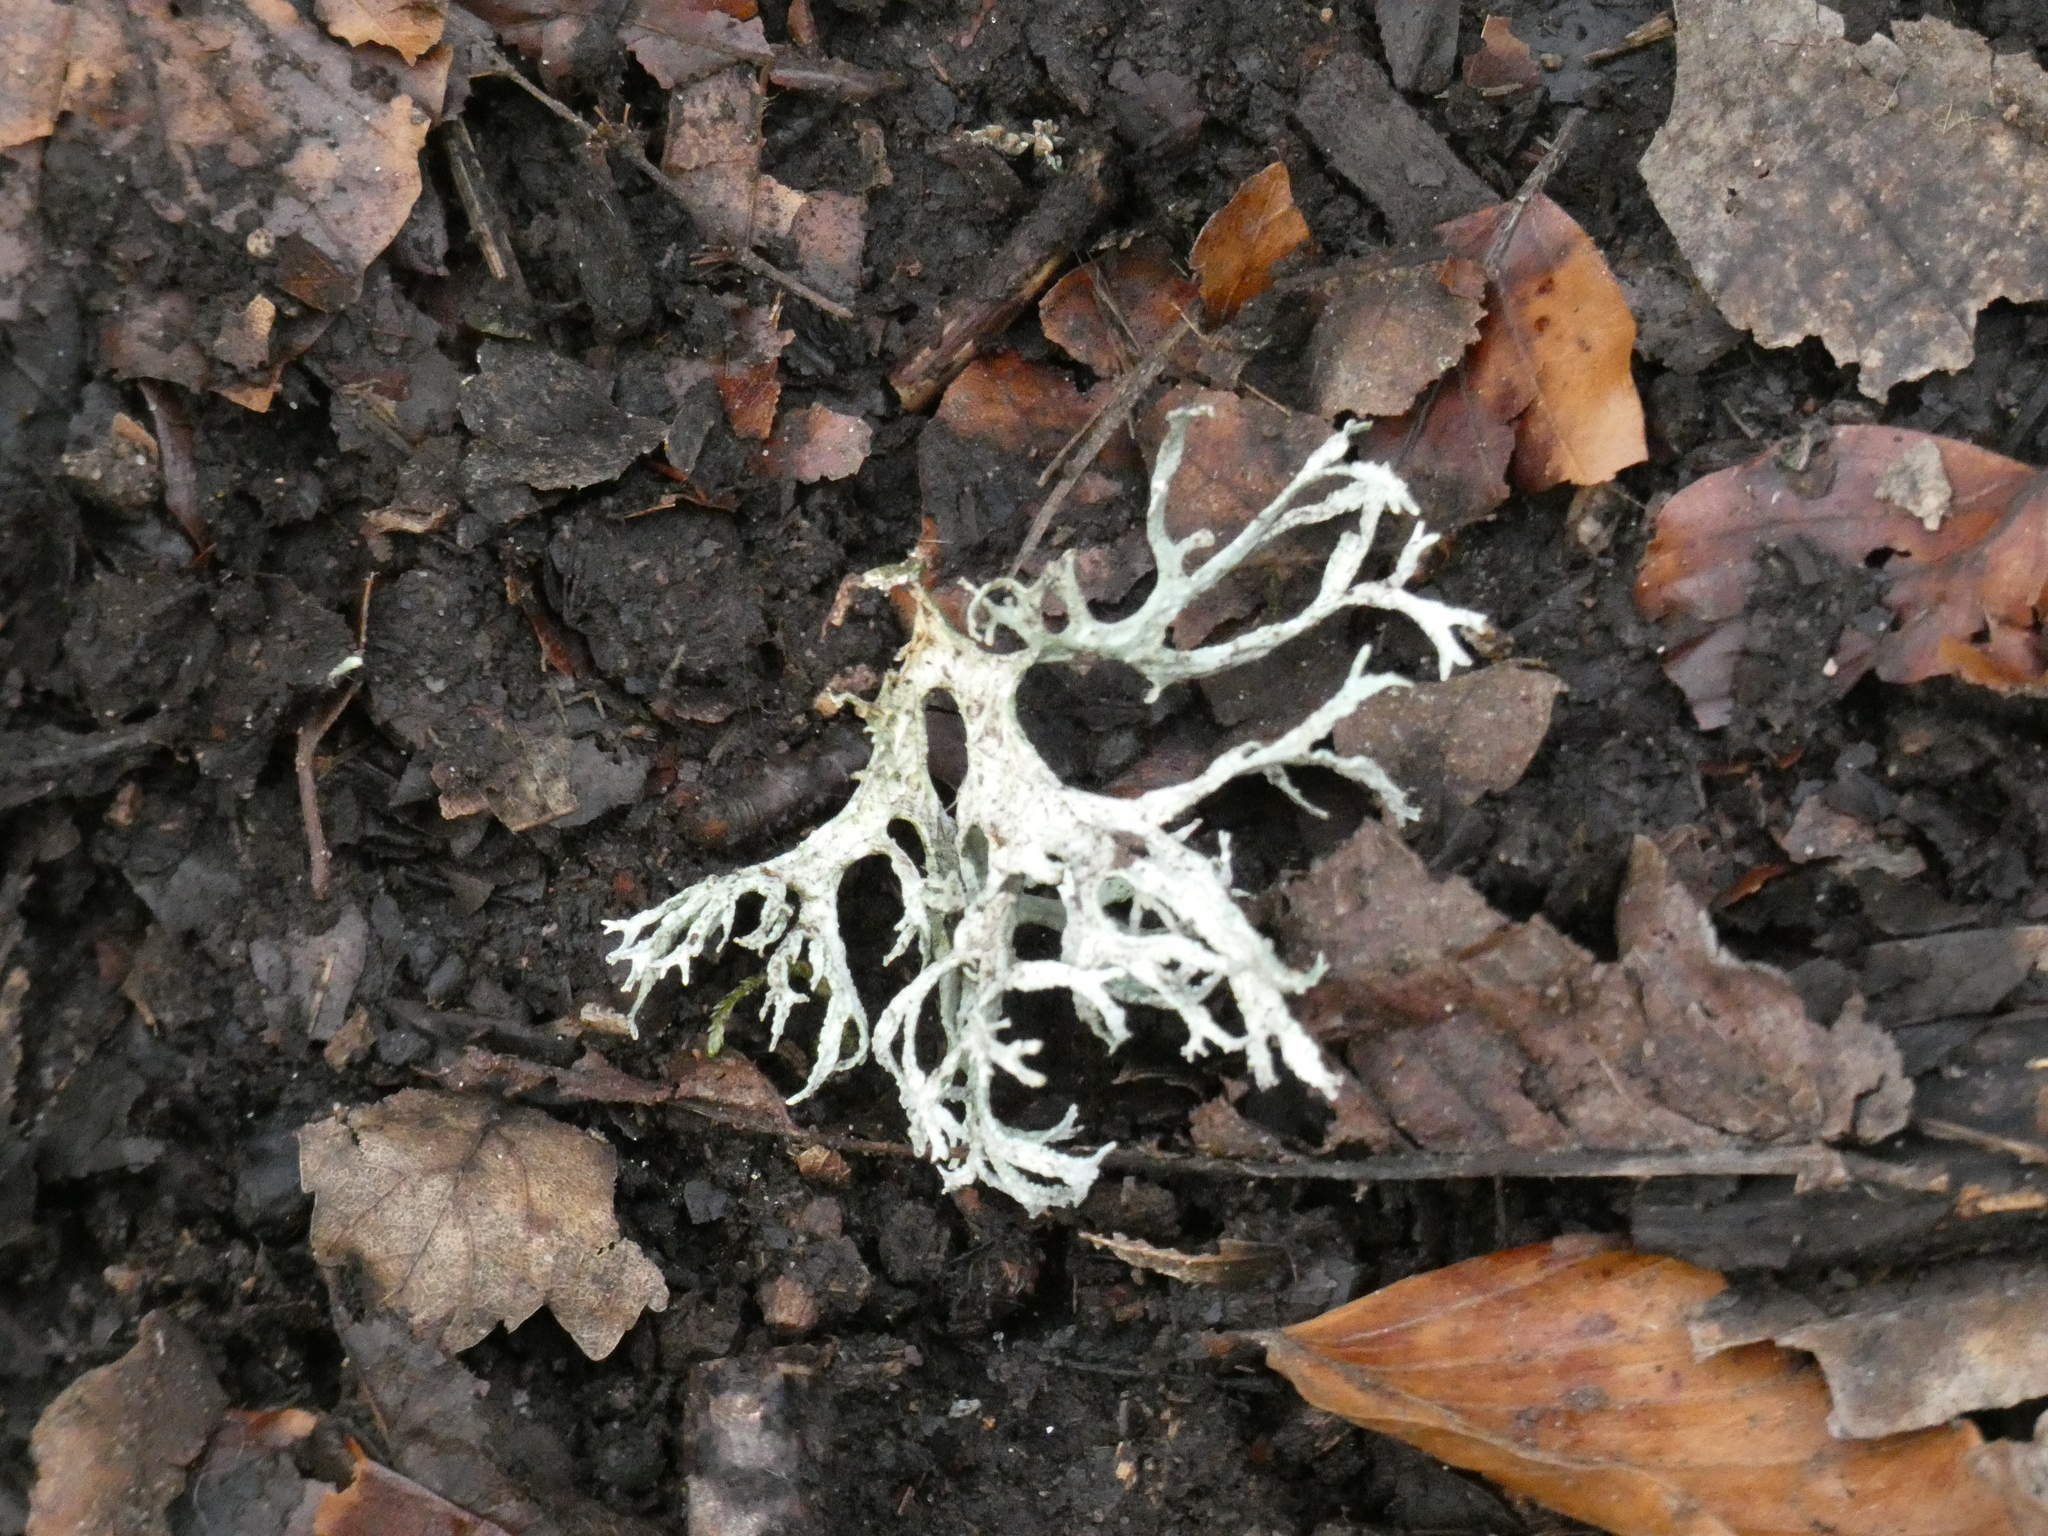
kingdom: Fungi
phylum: Ascomycota
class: Lecanoromycetes
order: Lecanorales
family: Parmeliaceae
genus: Evernia
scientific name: Evernia prunastri
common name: Oak moss
